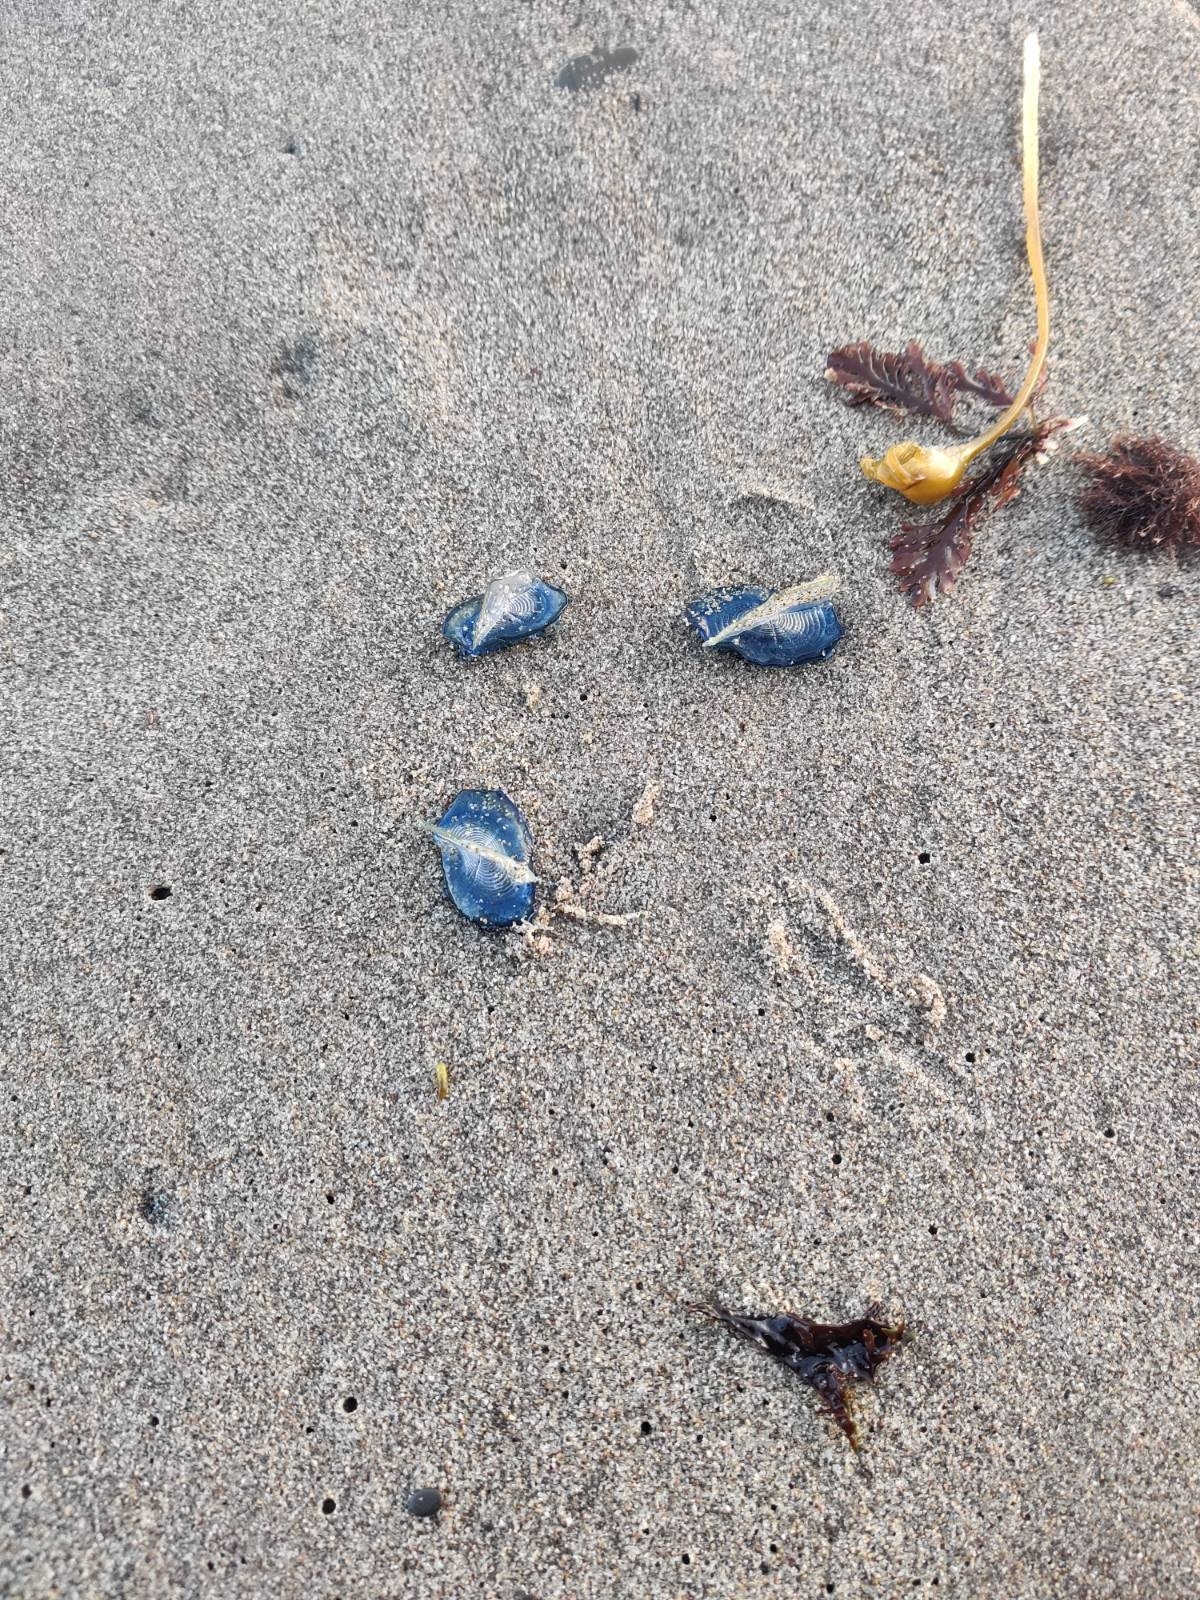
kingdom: Animalia
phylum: Cnidaria
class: Hydrozoa
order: Anthoathecata
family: Porpitidae
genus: Velella
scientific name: Velella velella
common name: By-the-wind-sailor
